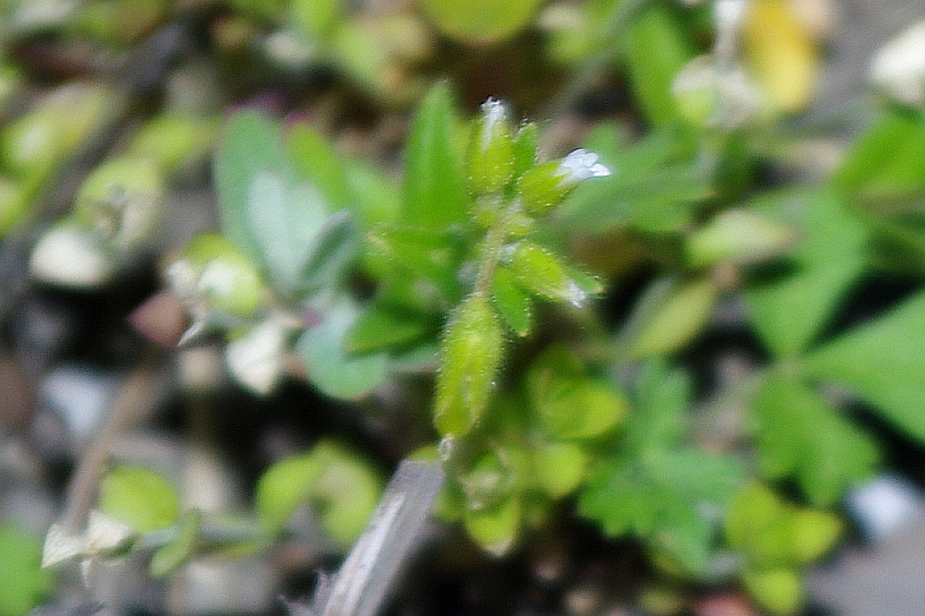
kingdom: Plantae
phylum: Tracheophyta
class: Magnoliopsida
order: Caryophyllales
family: Caryophyllaceae
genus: Arenaria
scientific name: Arenaria serpyllifolia
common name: Thyme-leaved sandwort
